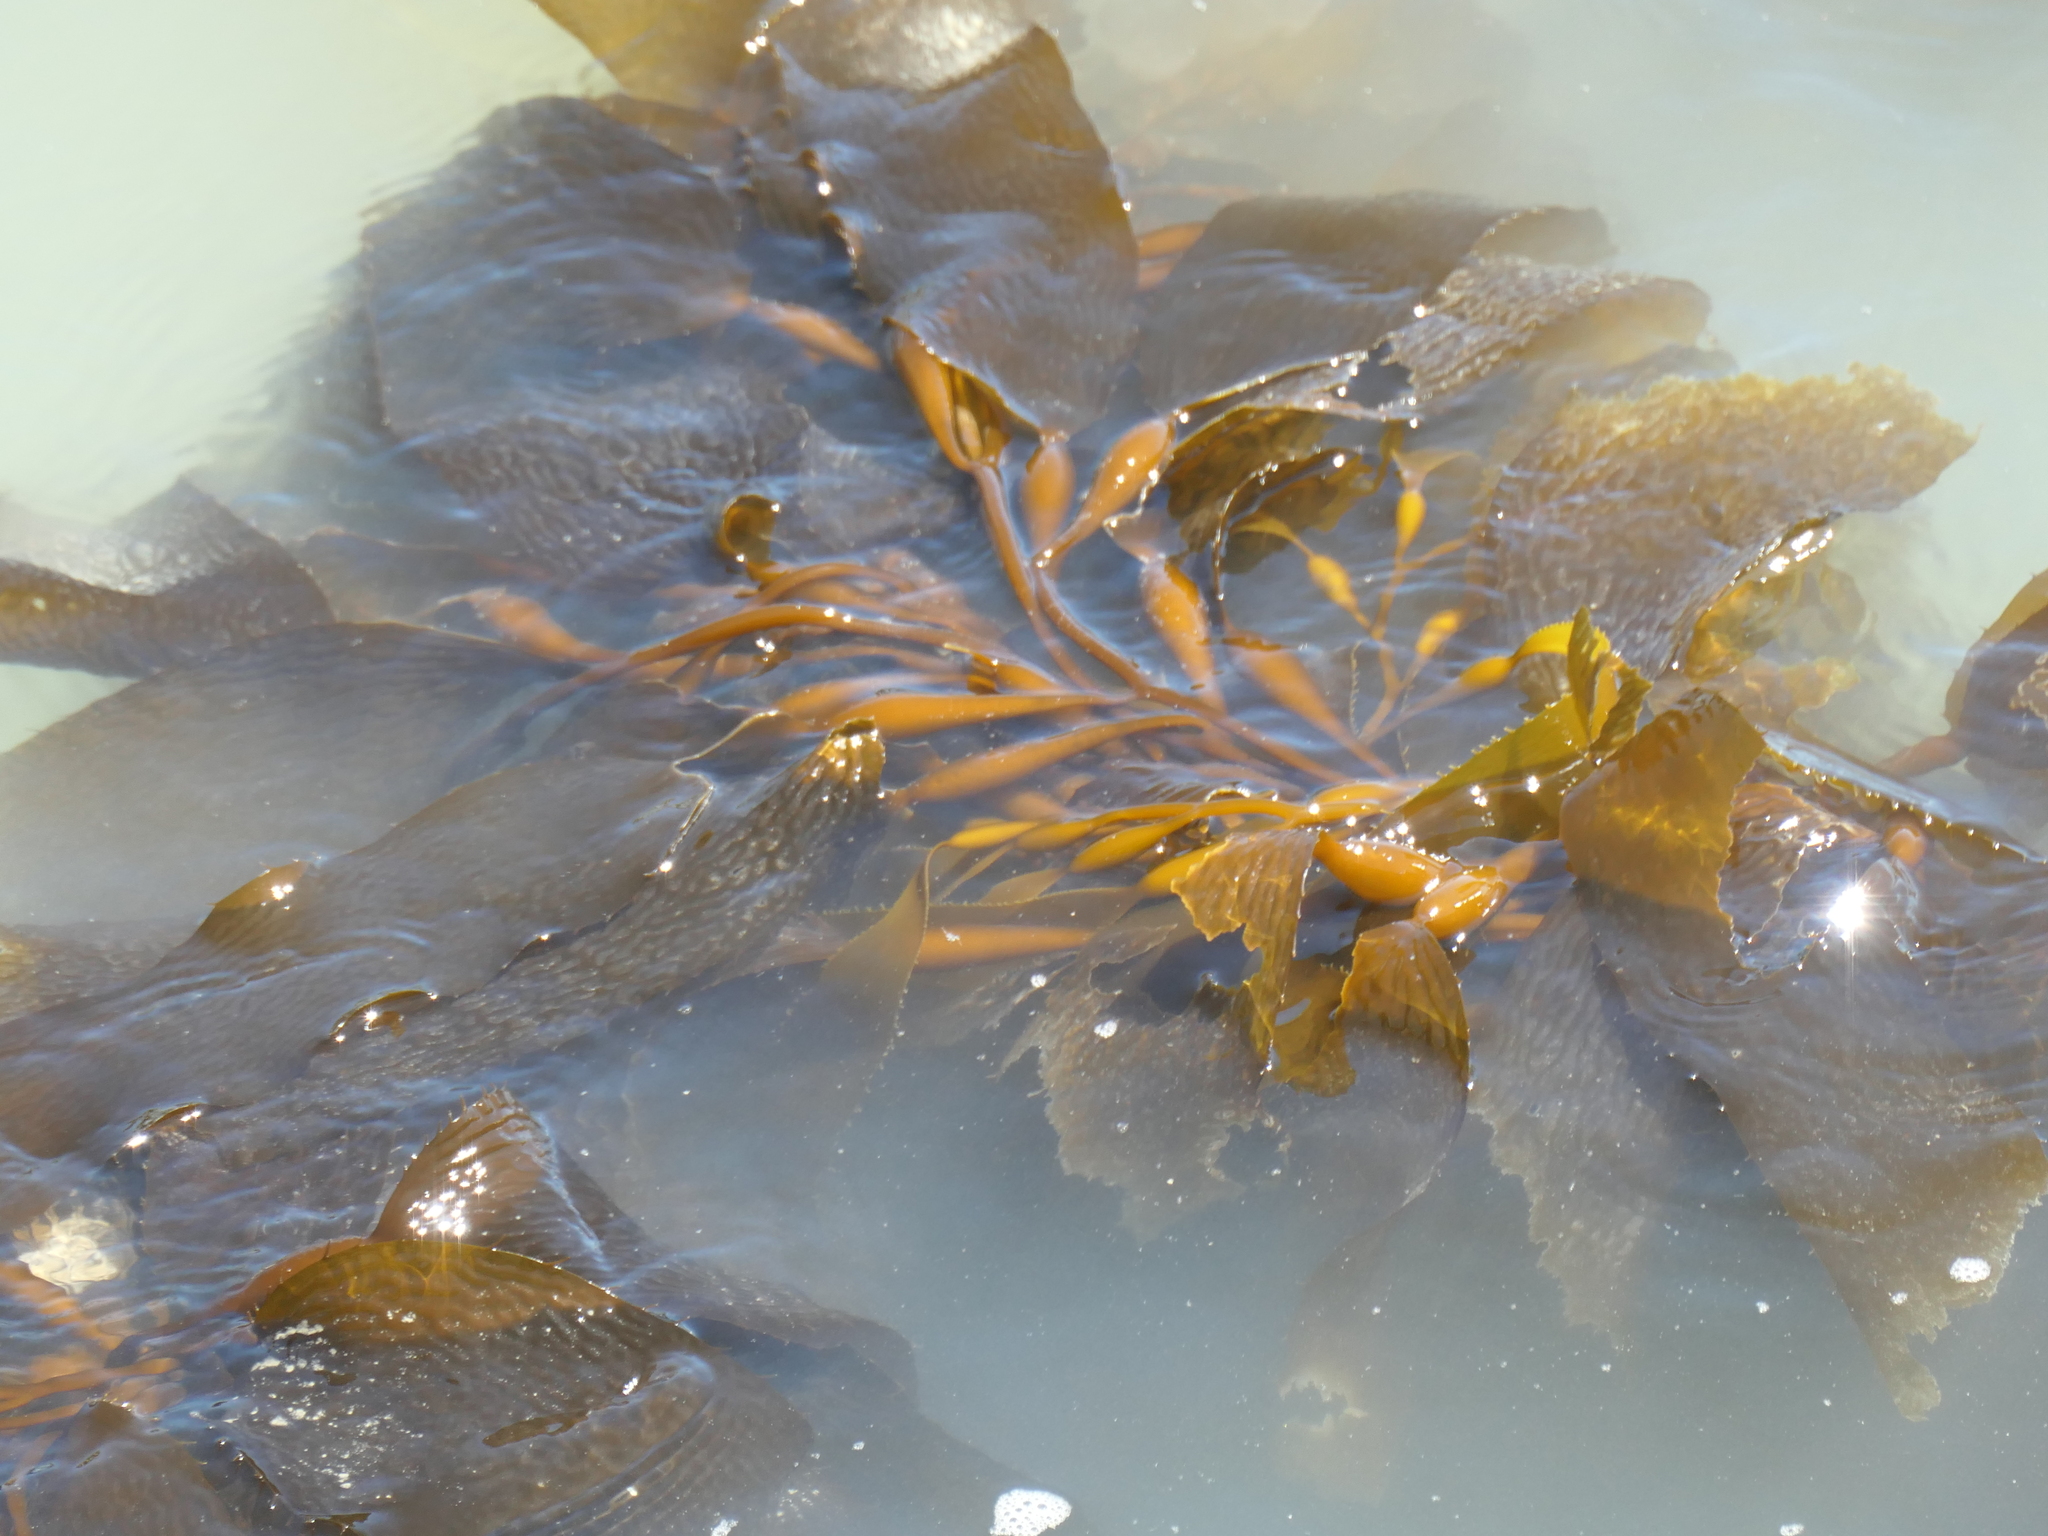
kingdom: Chromista
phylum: Ochrophyta
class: Phaeophyceae
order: Laminariales
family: Laminariaceae
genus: Macrocystis
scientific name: Macrocystis pyrifera
